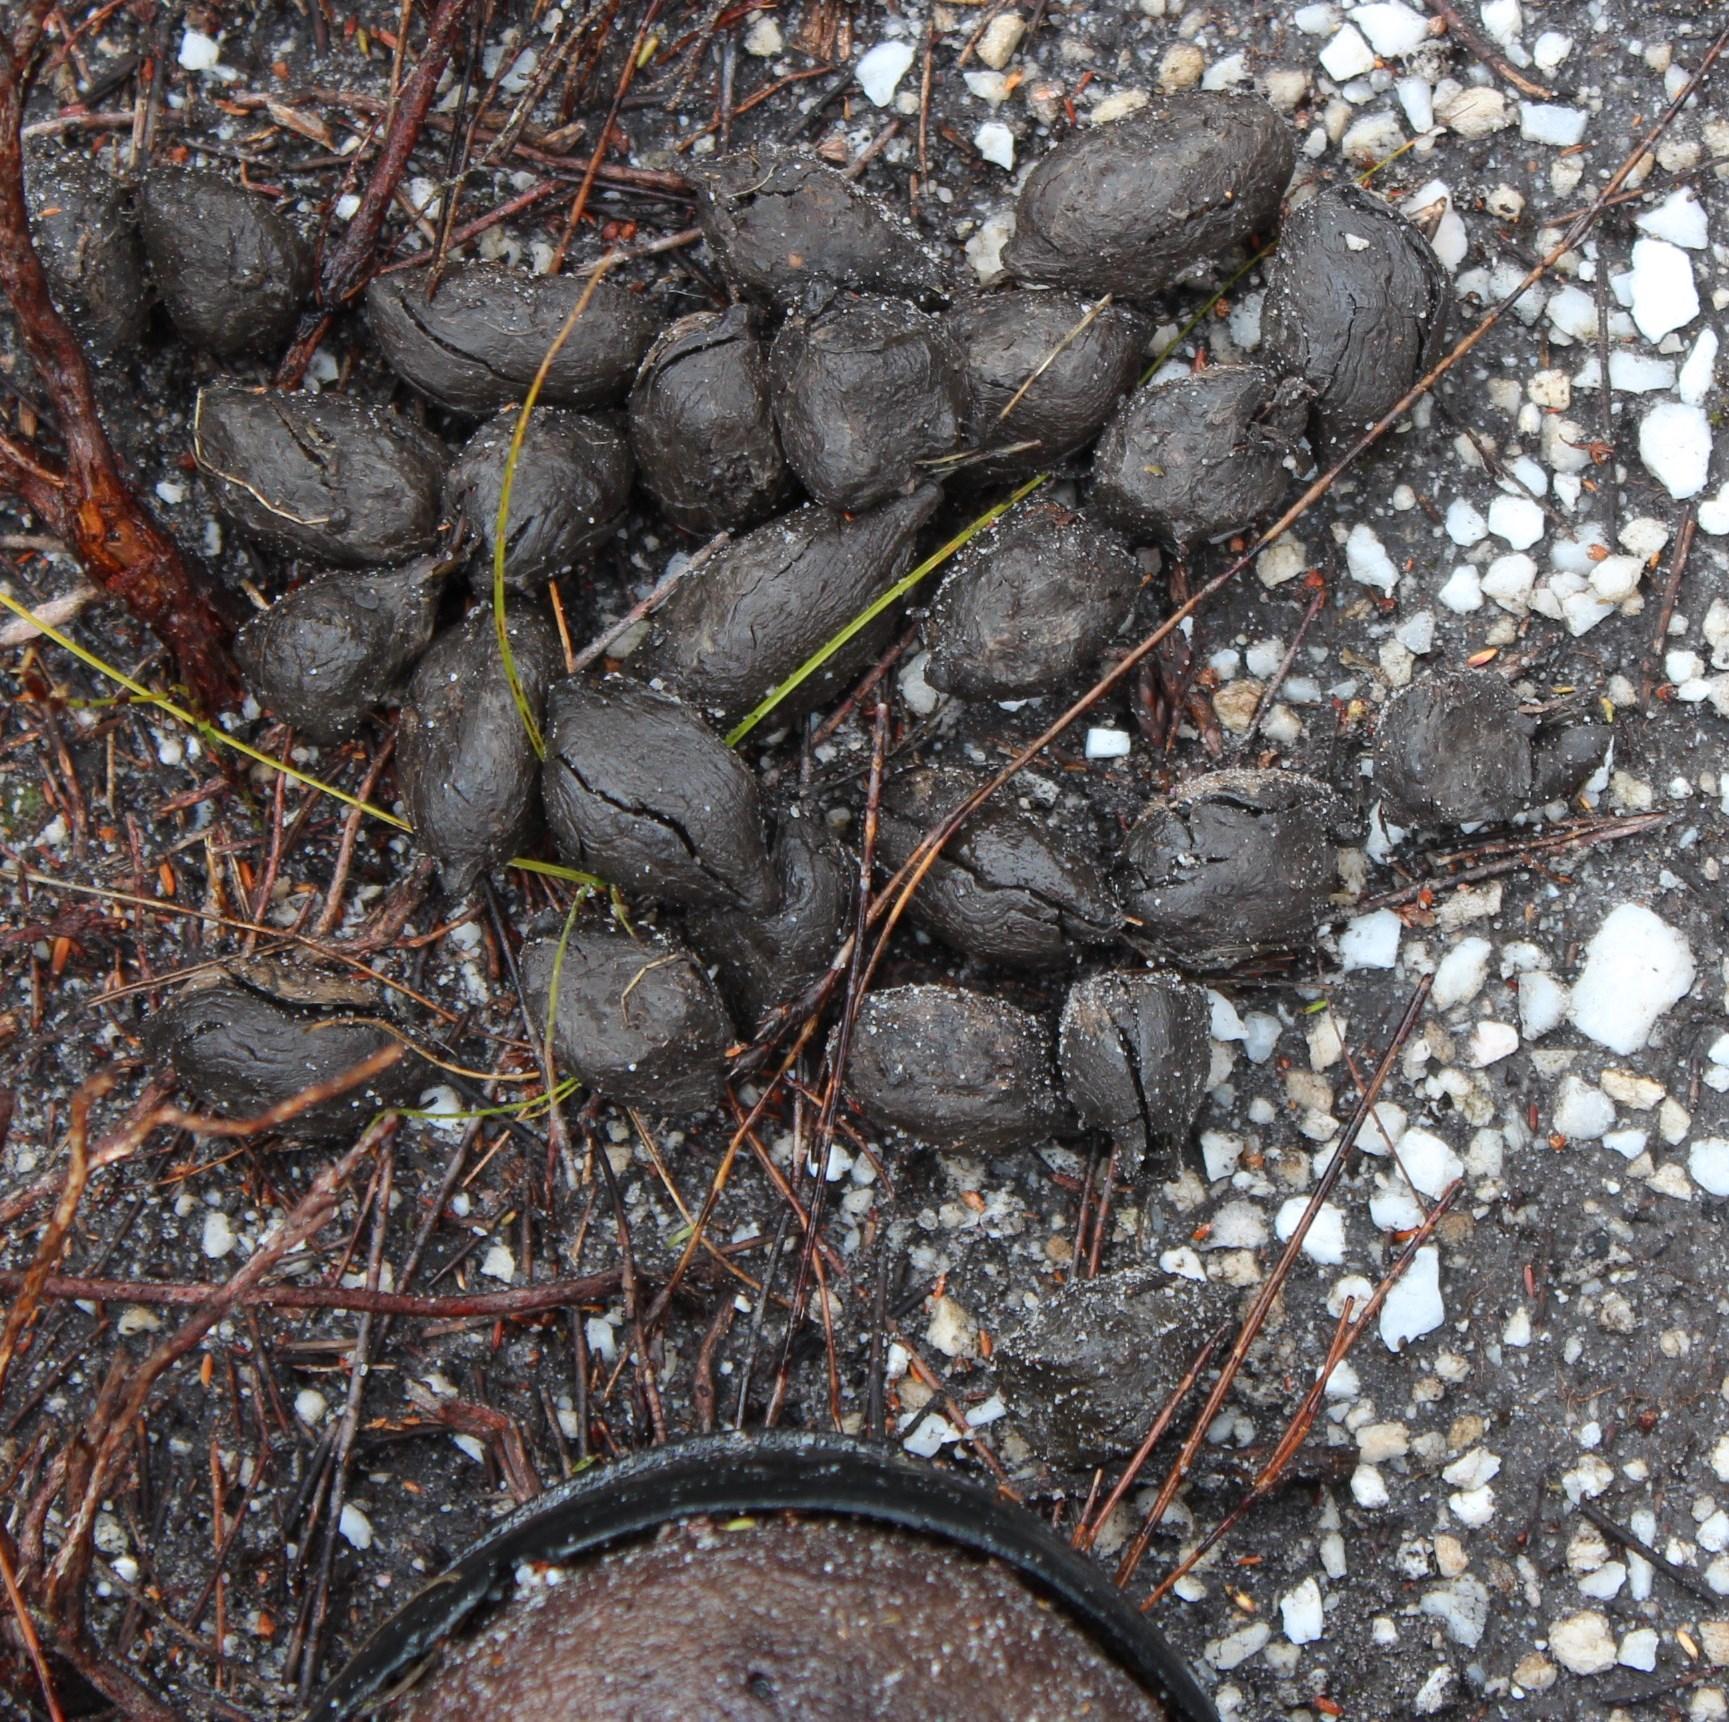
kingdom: Animalia
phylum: Chordata
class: Mammalia
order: Rodentia
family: Hystricidae
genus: Hystrix
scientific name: Hystrix africaeaustralis
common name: Cape porcupine
